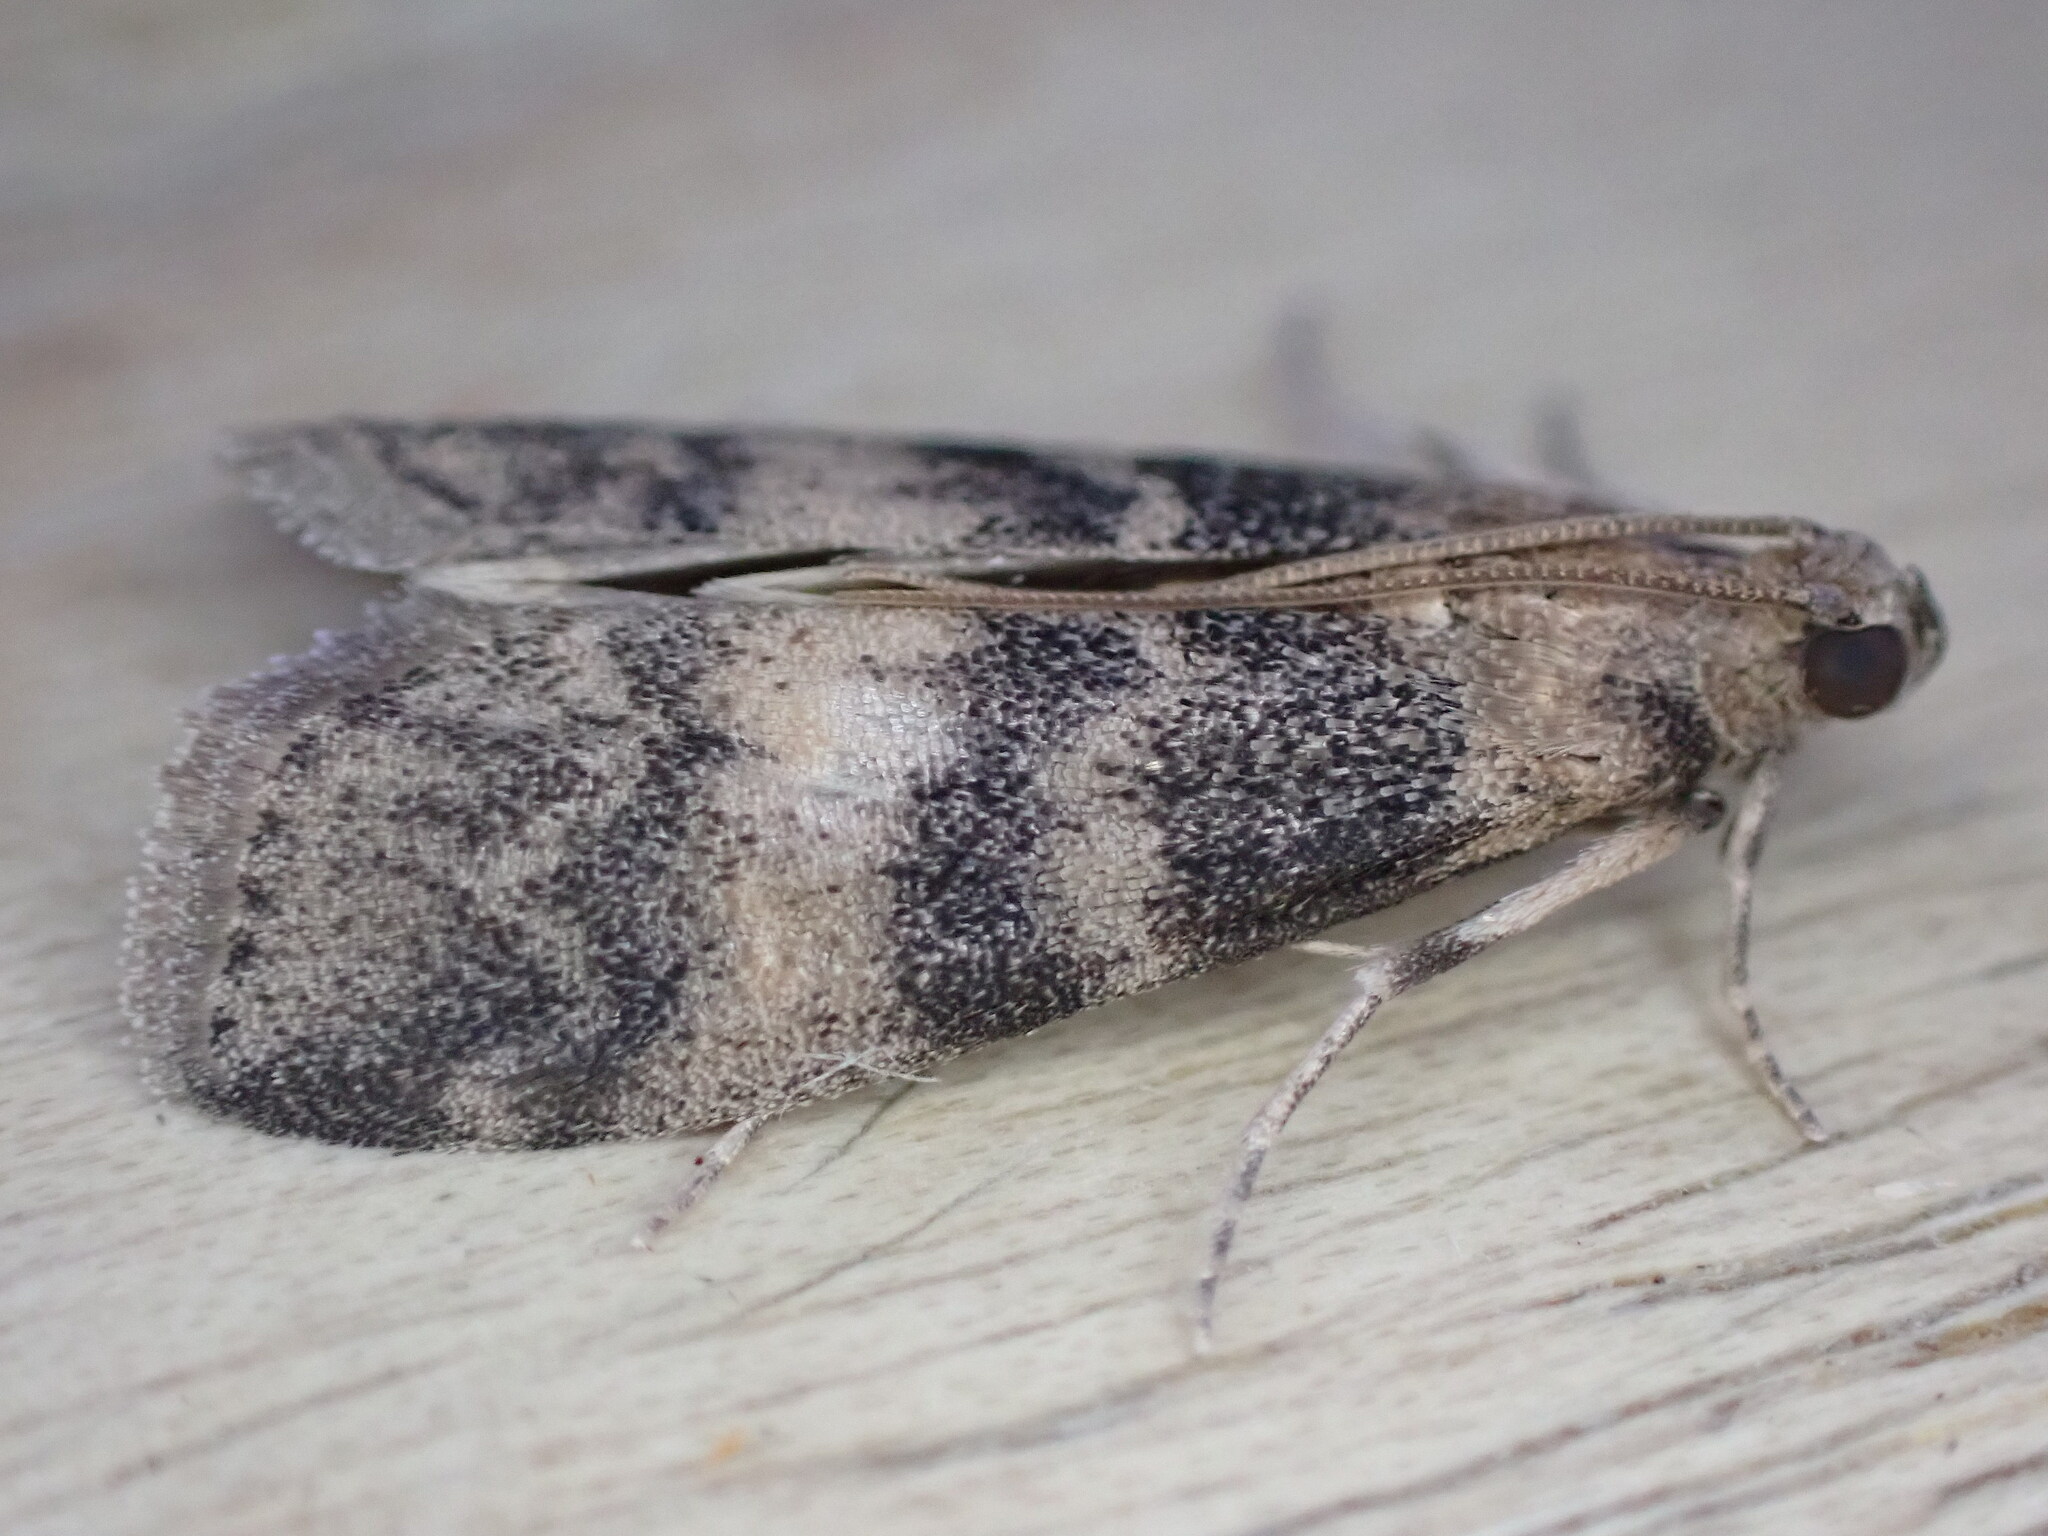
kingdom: Animalia
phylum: Arthropoda
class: Insecta
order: Lepidoptera
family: Pyralidae
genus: Euzophera
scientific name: Euzophera pinguis
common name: Ash-bark knot-horn
